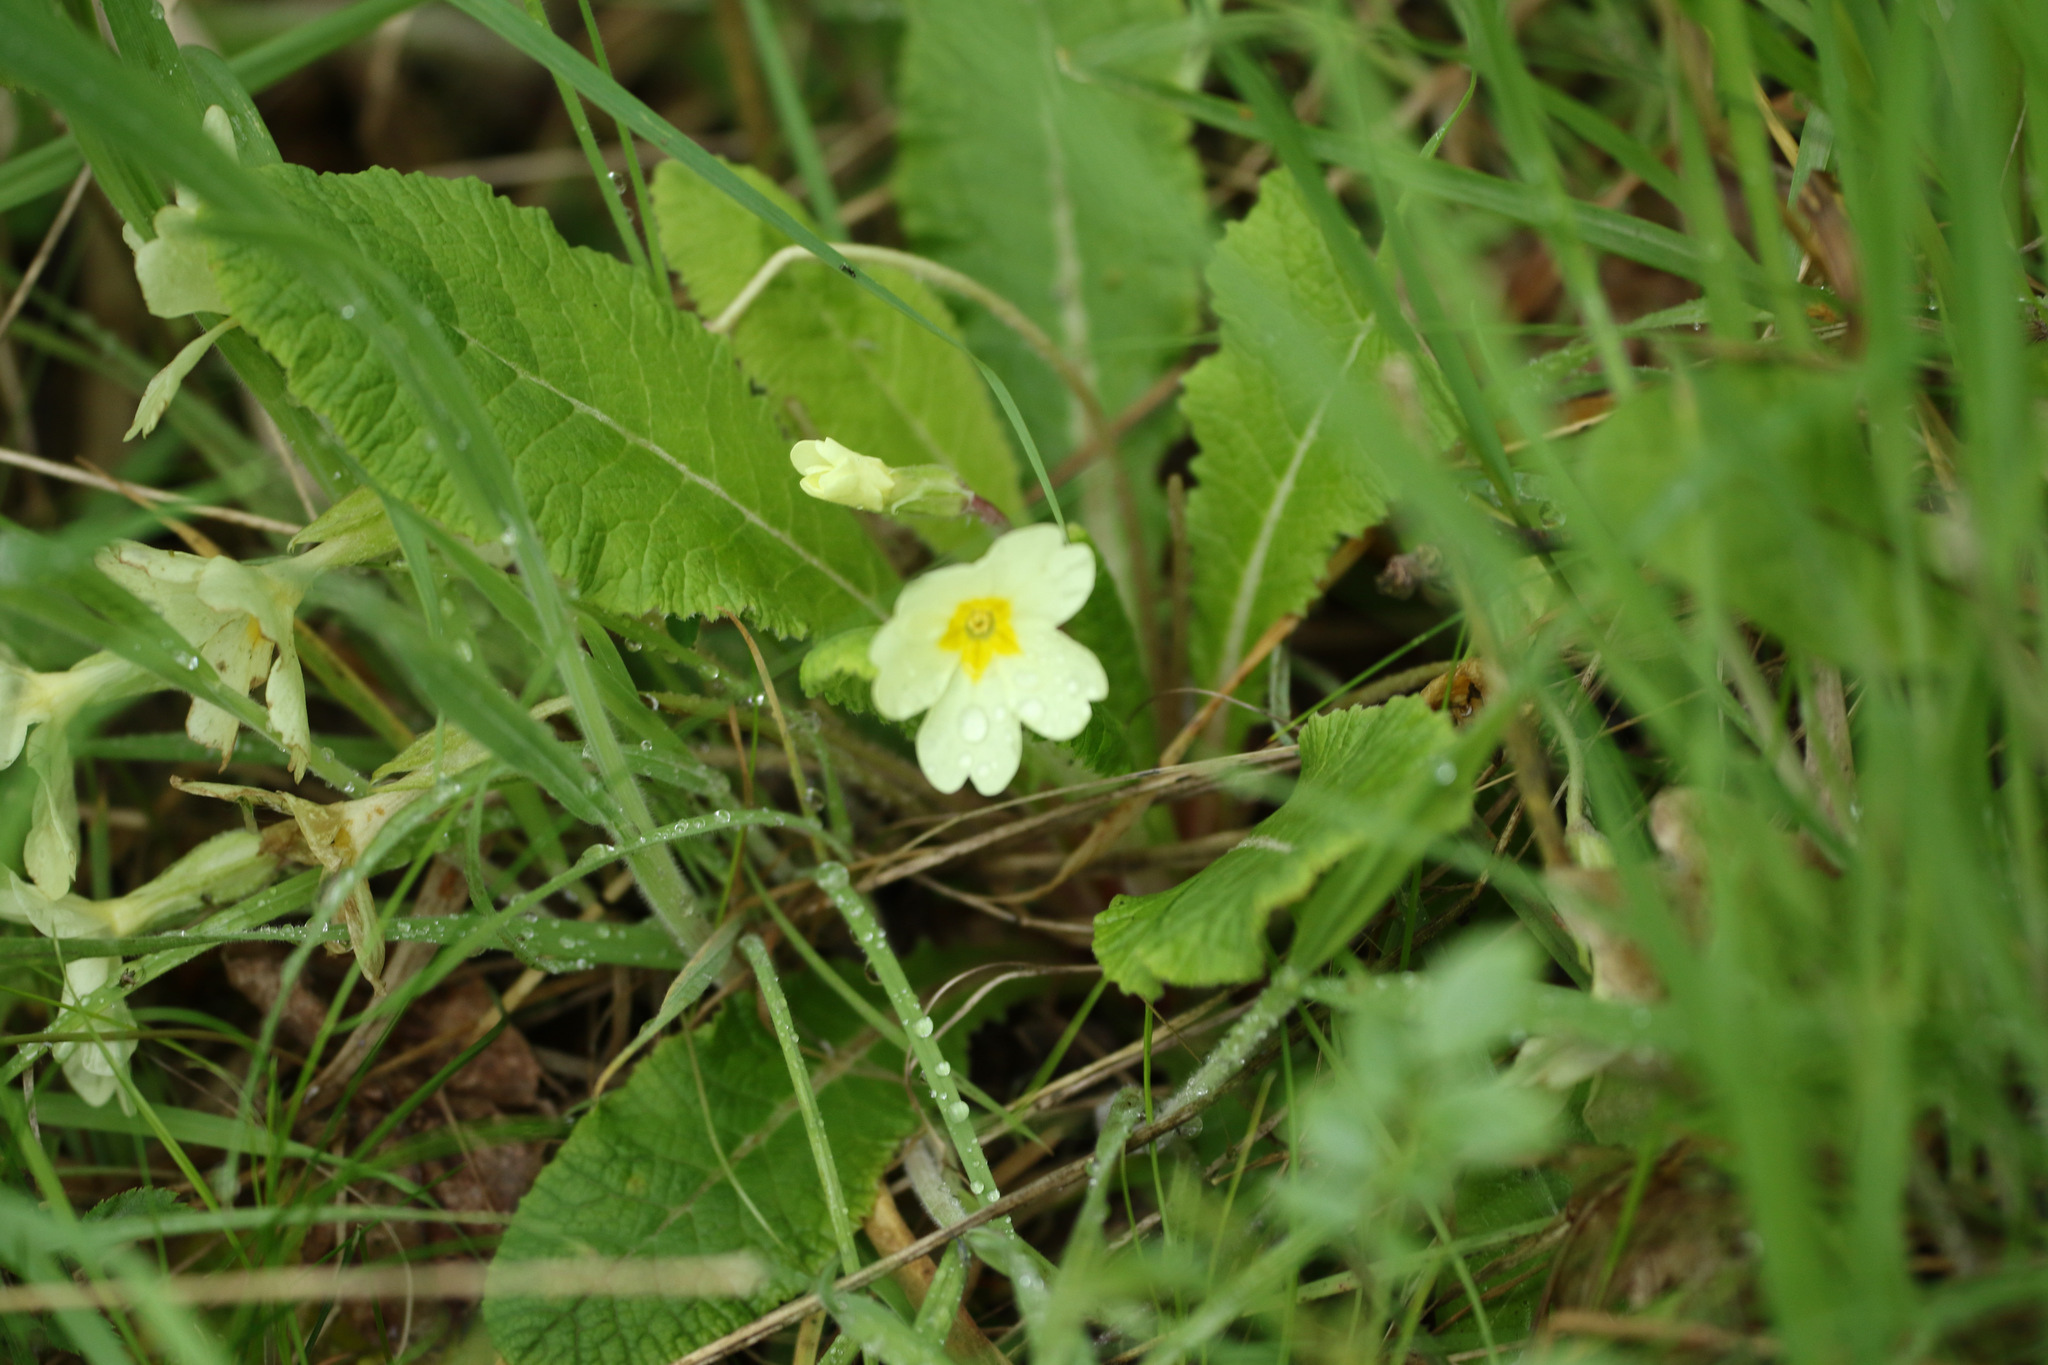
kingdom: Plantae
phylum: Tracheophyta
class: Magnoliopsida
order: Ericales
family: Primulaceae
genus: Primula
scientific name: Primula vulgaris
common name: Primrose
